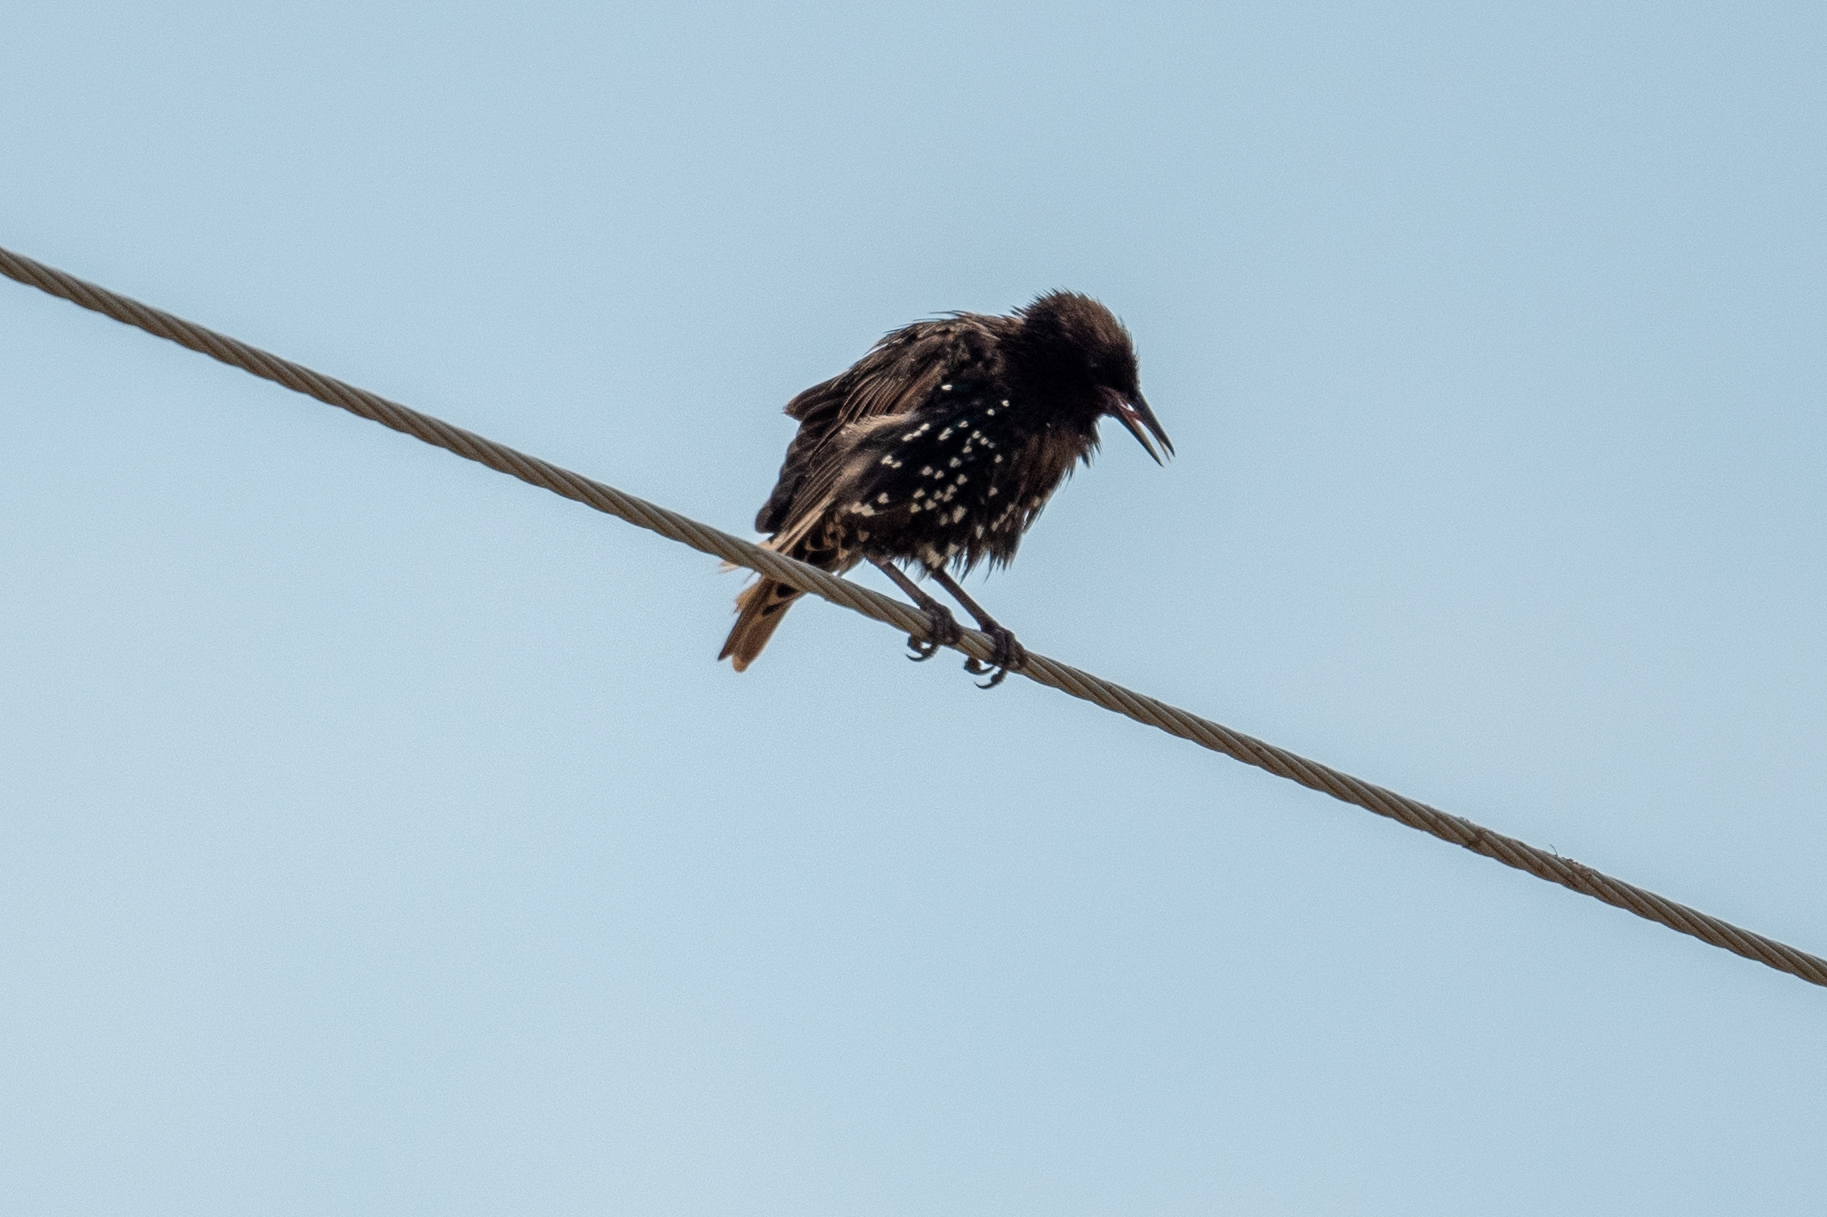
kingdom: Animalia
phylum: Chordata
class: Aves
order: Passeriformes
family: Sturnidae
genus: Sturnus
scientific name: Sturnus vulgaris
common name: Common starling
